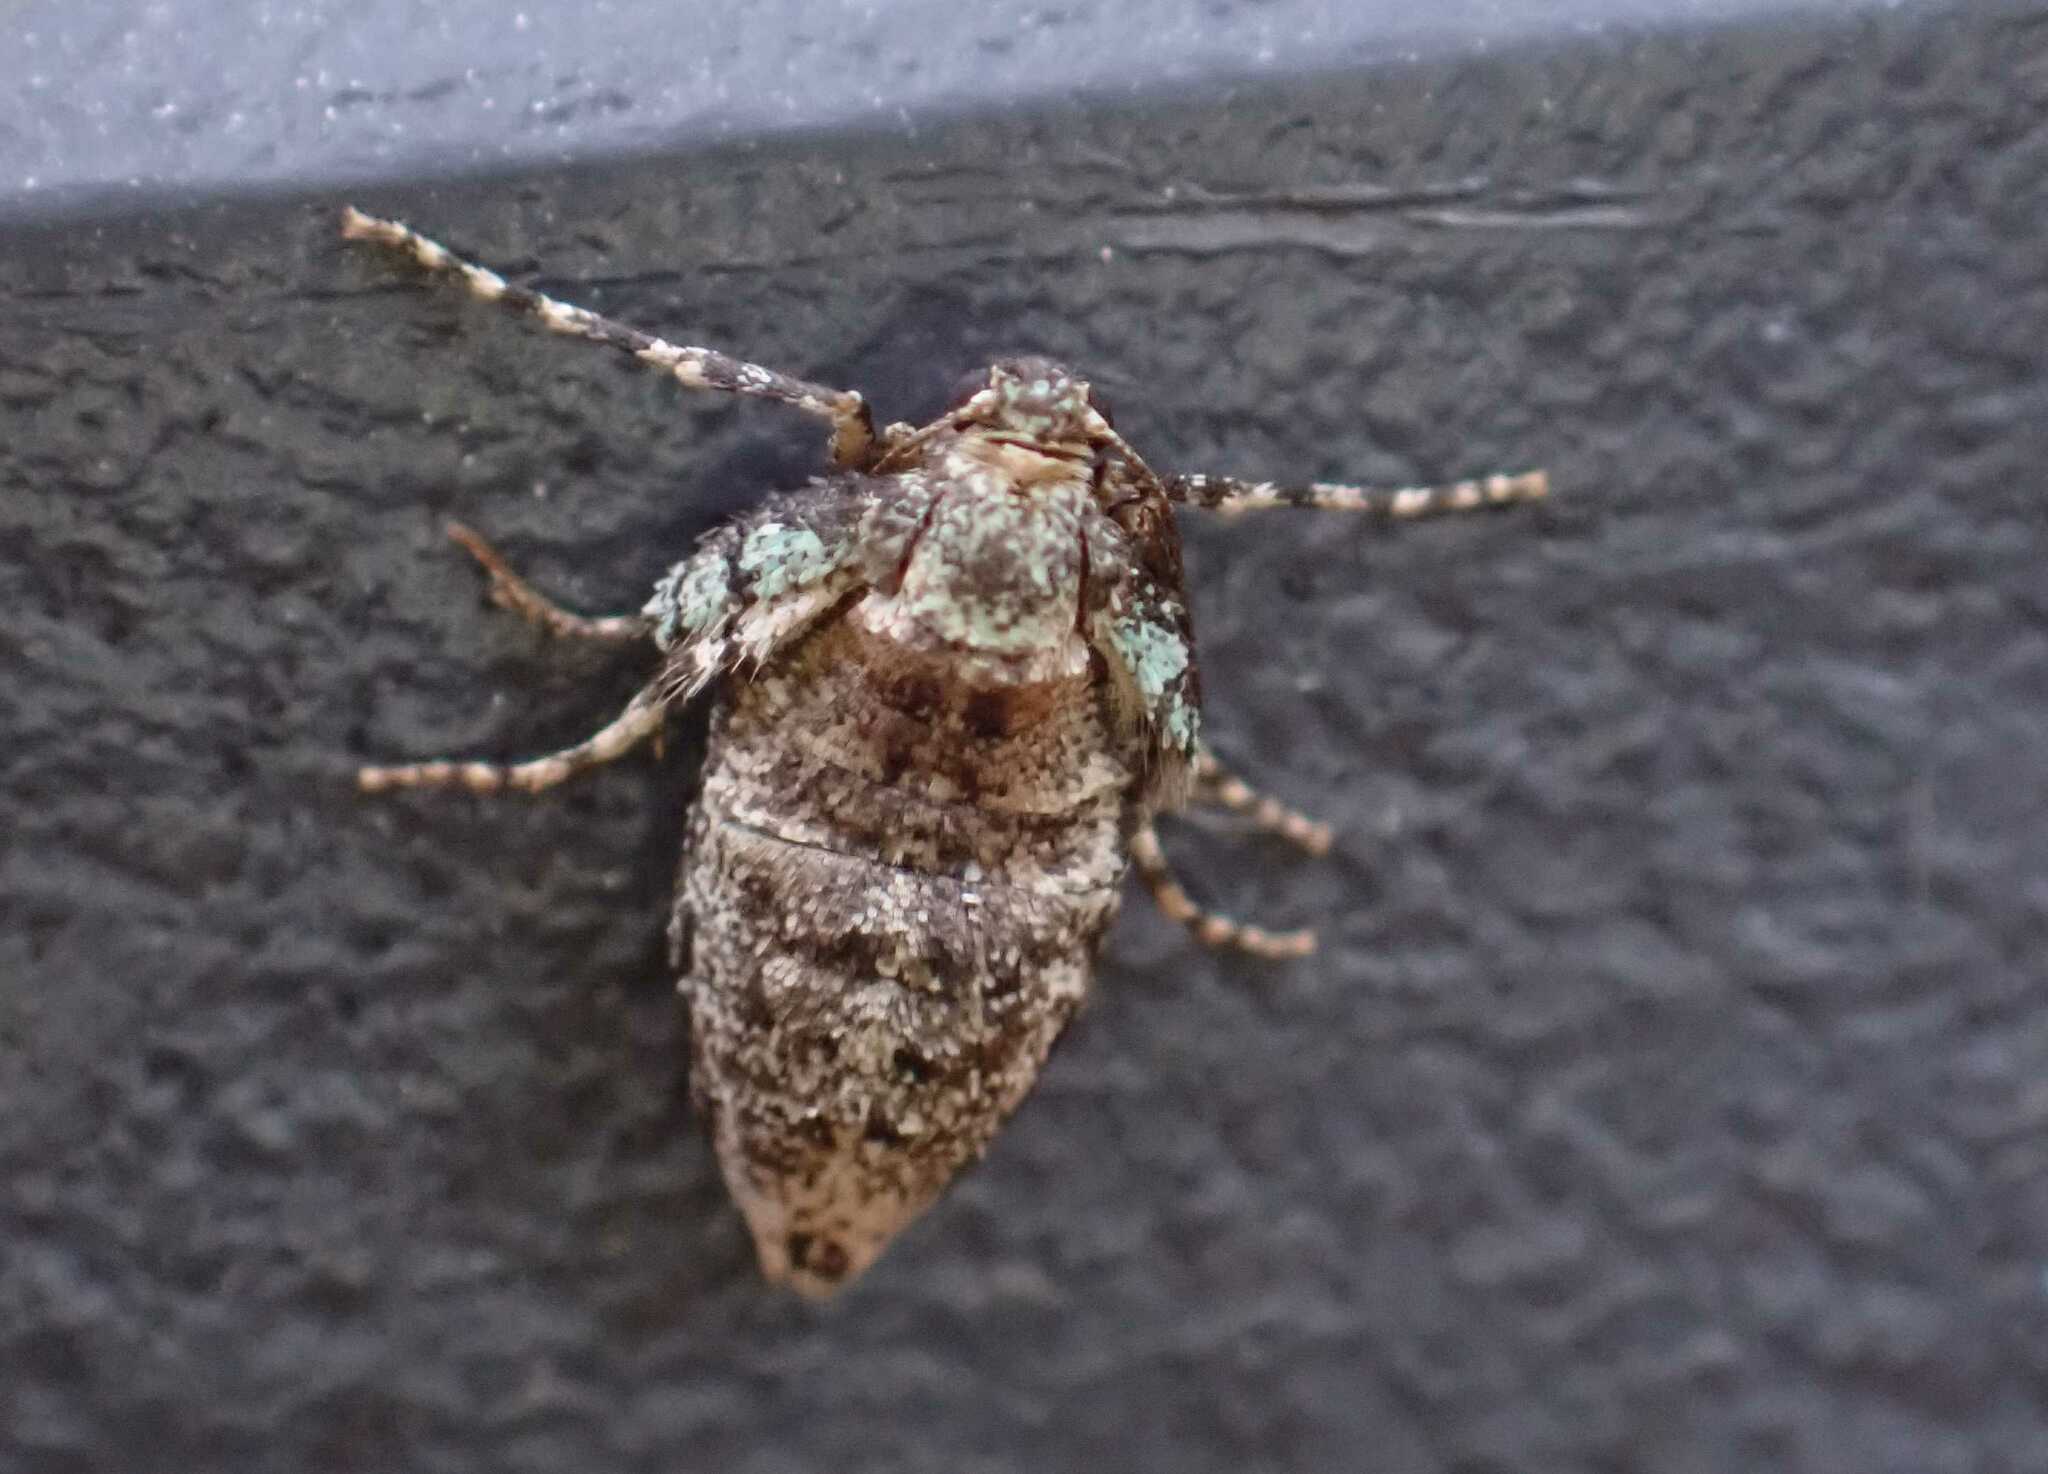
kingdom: Animalia
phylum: Arthropoda
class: Insecta
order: Lepidoptera
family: Geometridae
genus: Operophtera
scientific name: Operophtera brumata
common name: Winter moth
